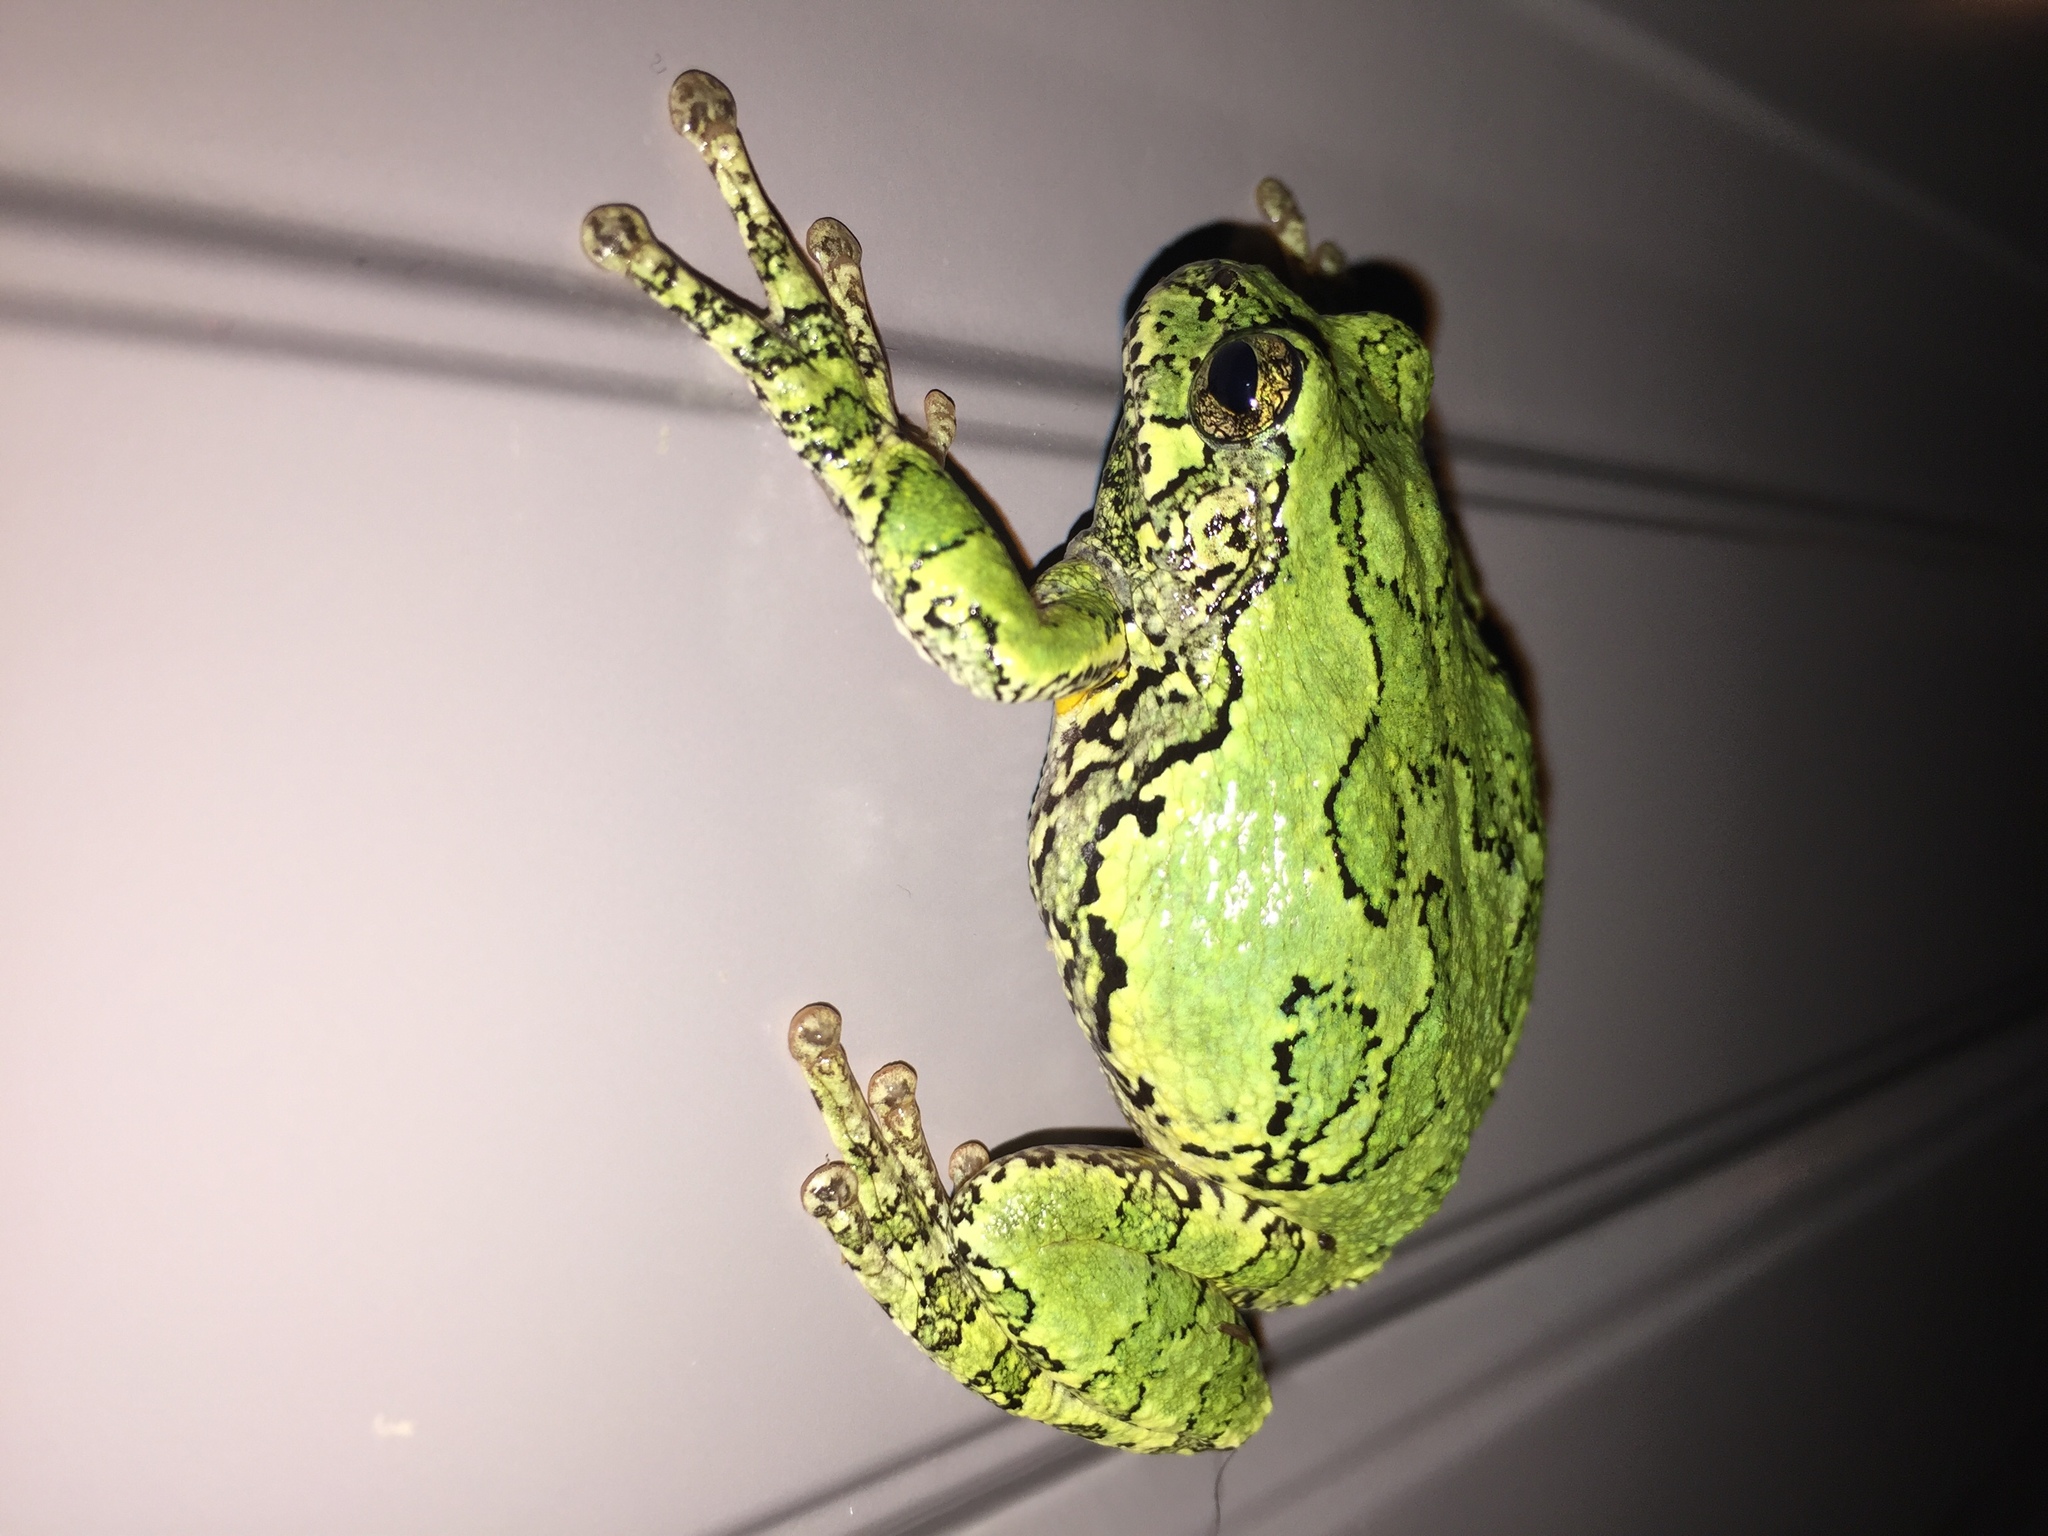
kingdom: Animalia
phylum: Chordata
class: Amphibia
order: Anura
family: Hylidae
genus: Dryophytes
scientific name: Dryophytes versicolor
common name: Gray treefrog
